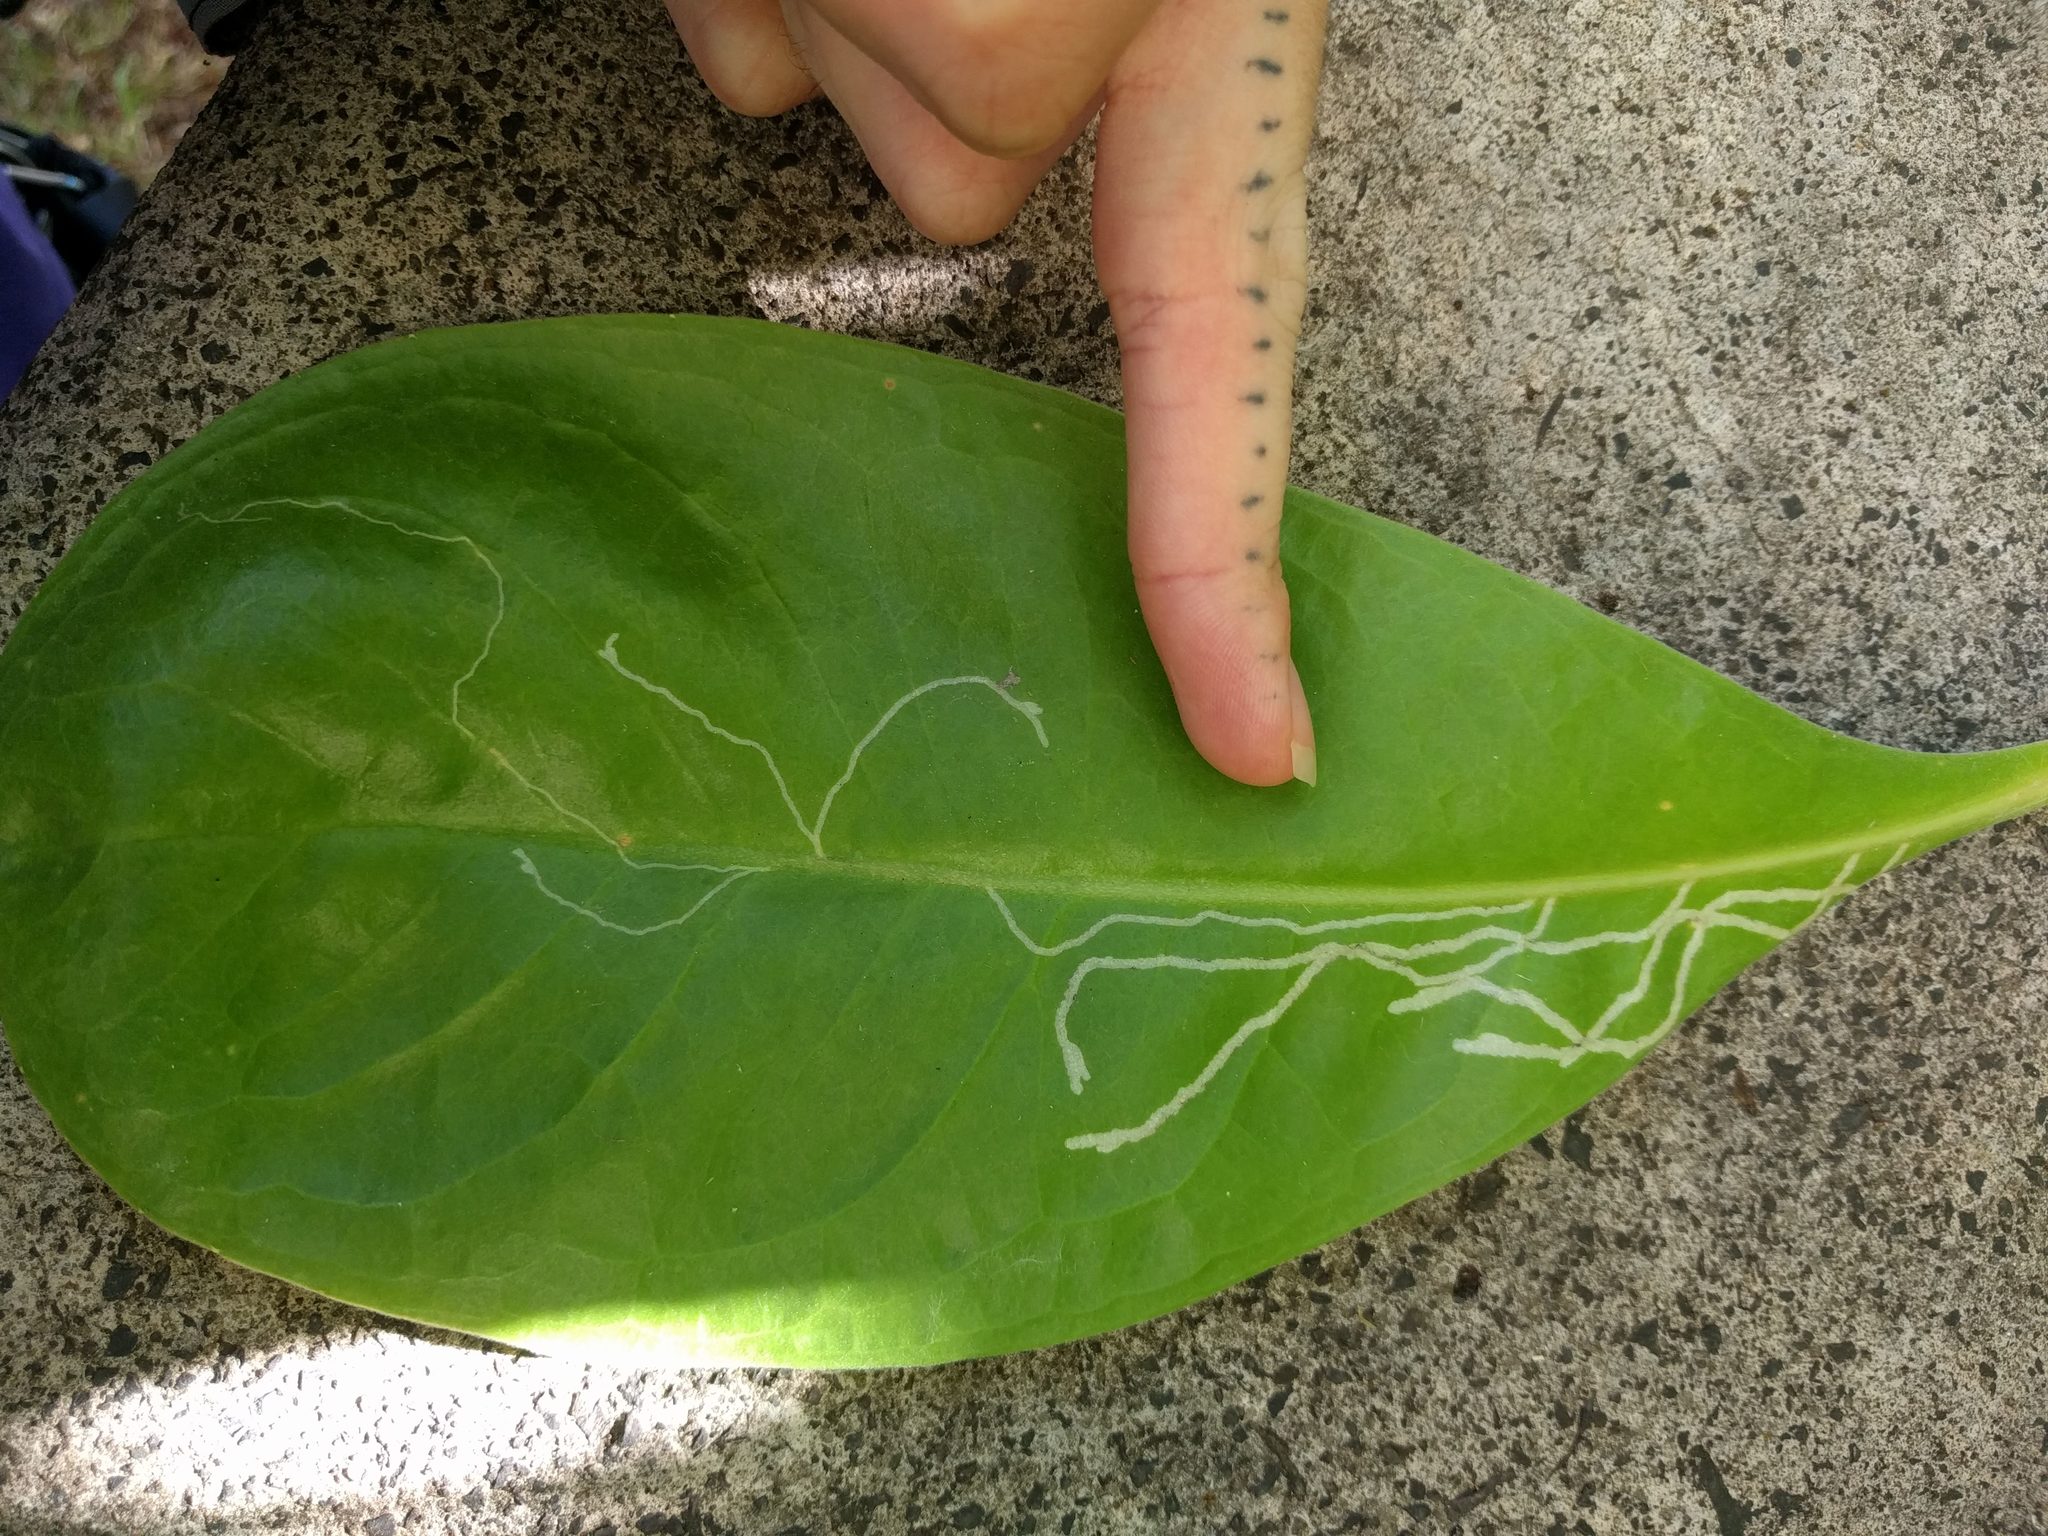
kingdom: Animalia
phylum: Arthropoda
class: Insecta
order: Diptera
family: Agromyzidae
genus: Ophiomyia
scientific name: Ophiomyia cornuta
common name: Leafminer fly
